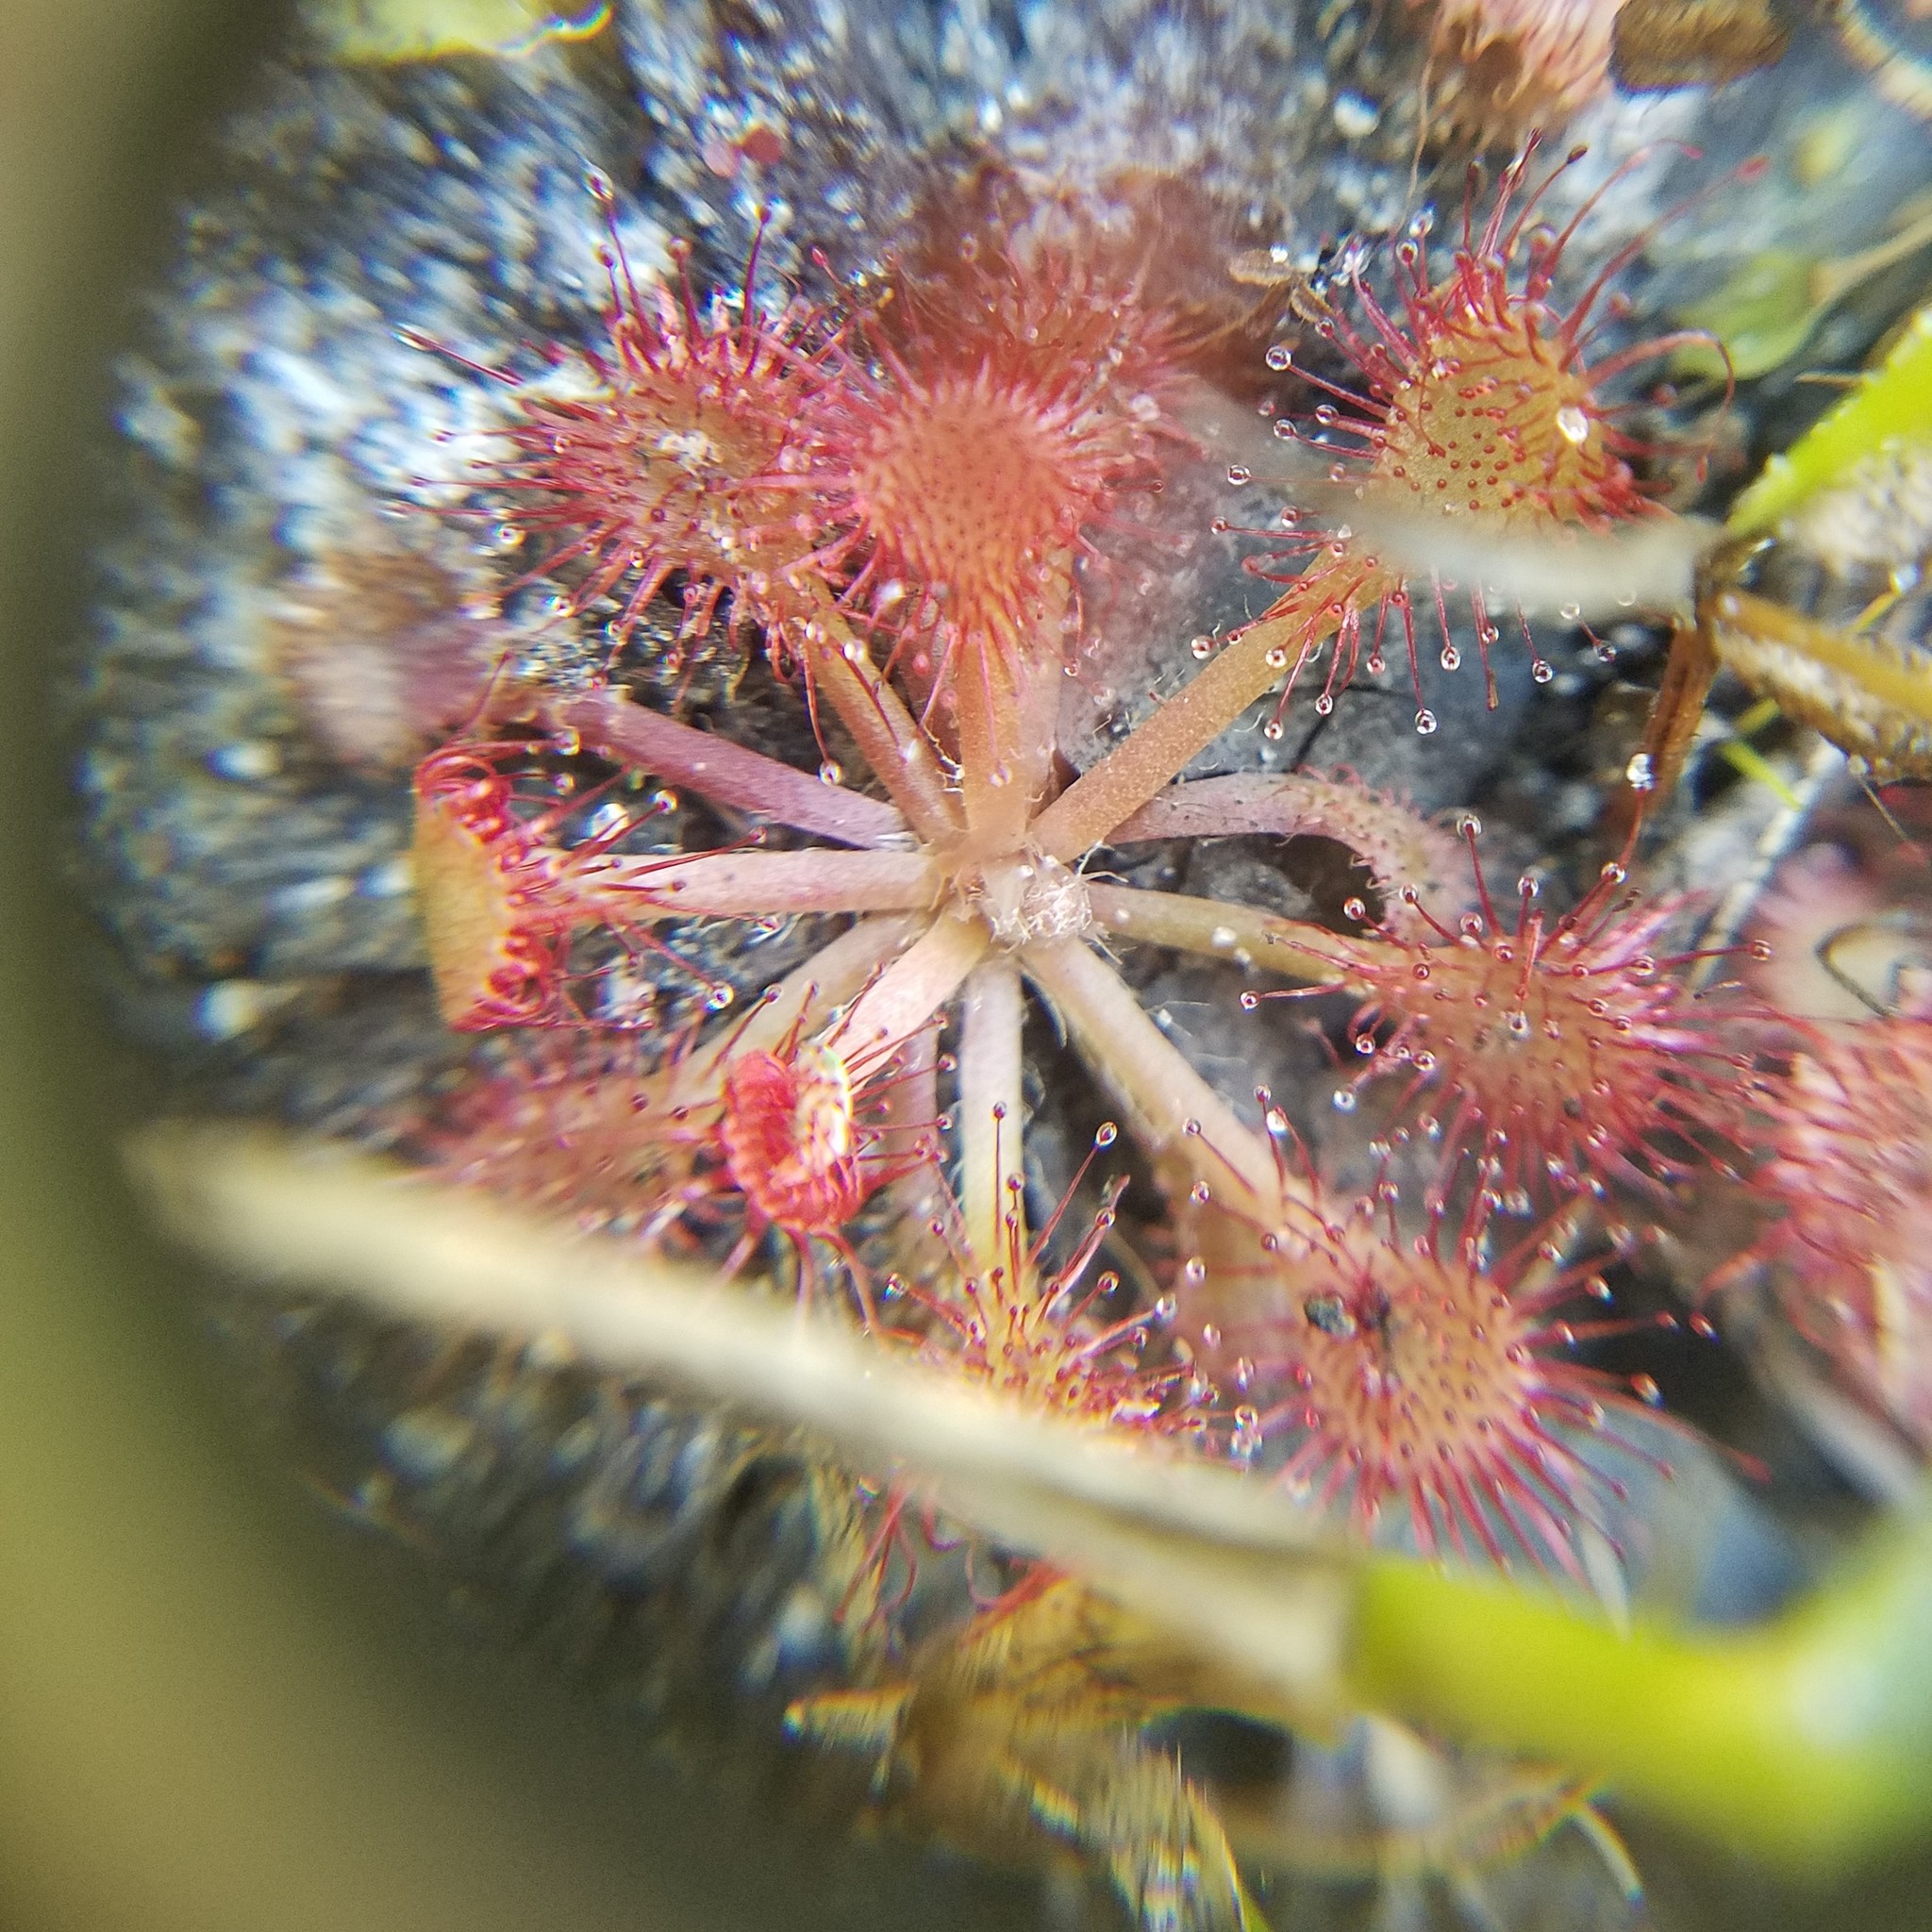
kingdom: Plantae
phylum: Tracheophyta
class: Magnoliopsida
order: Caryophyllales
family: Droseraceae
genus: Drosera
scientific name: Drosera capillaris
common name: Pink sundew
